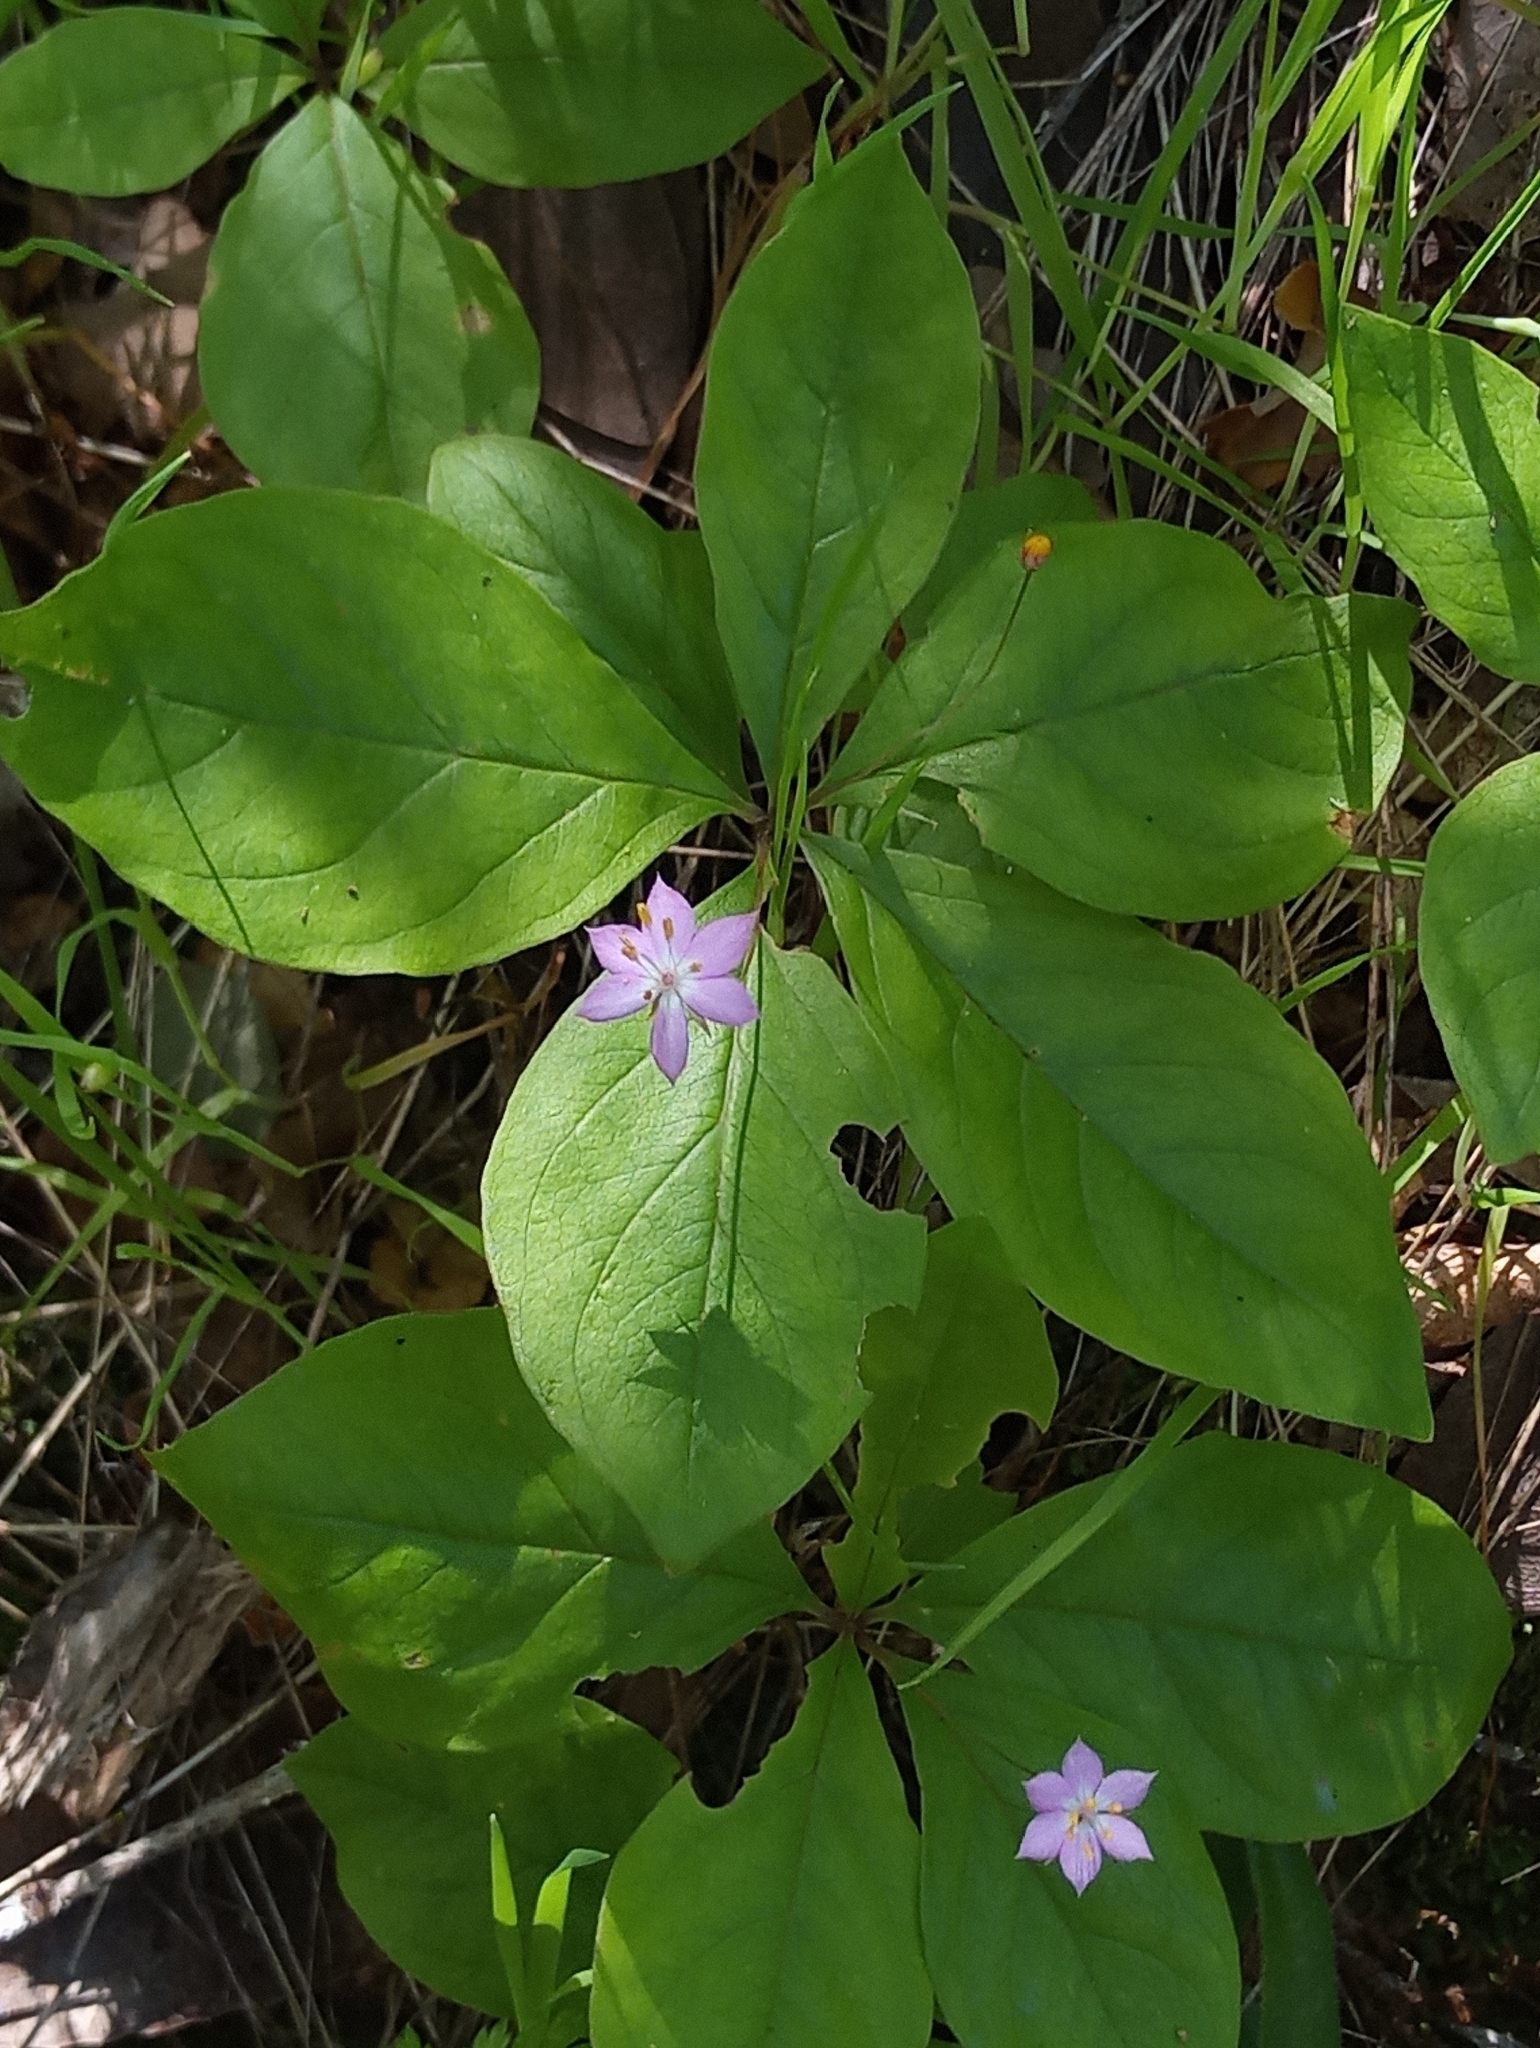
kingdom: Plantae
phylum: Tracheophyta
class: Magnoliopsida
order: Ericales
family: Primulaceae
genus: Lysimachia
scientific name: Lysimachia latifolia
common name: Pacific starflower
